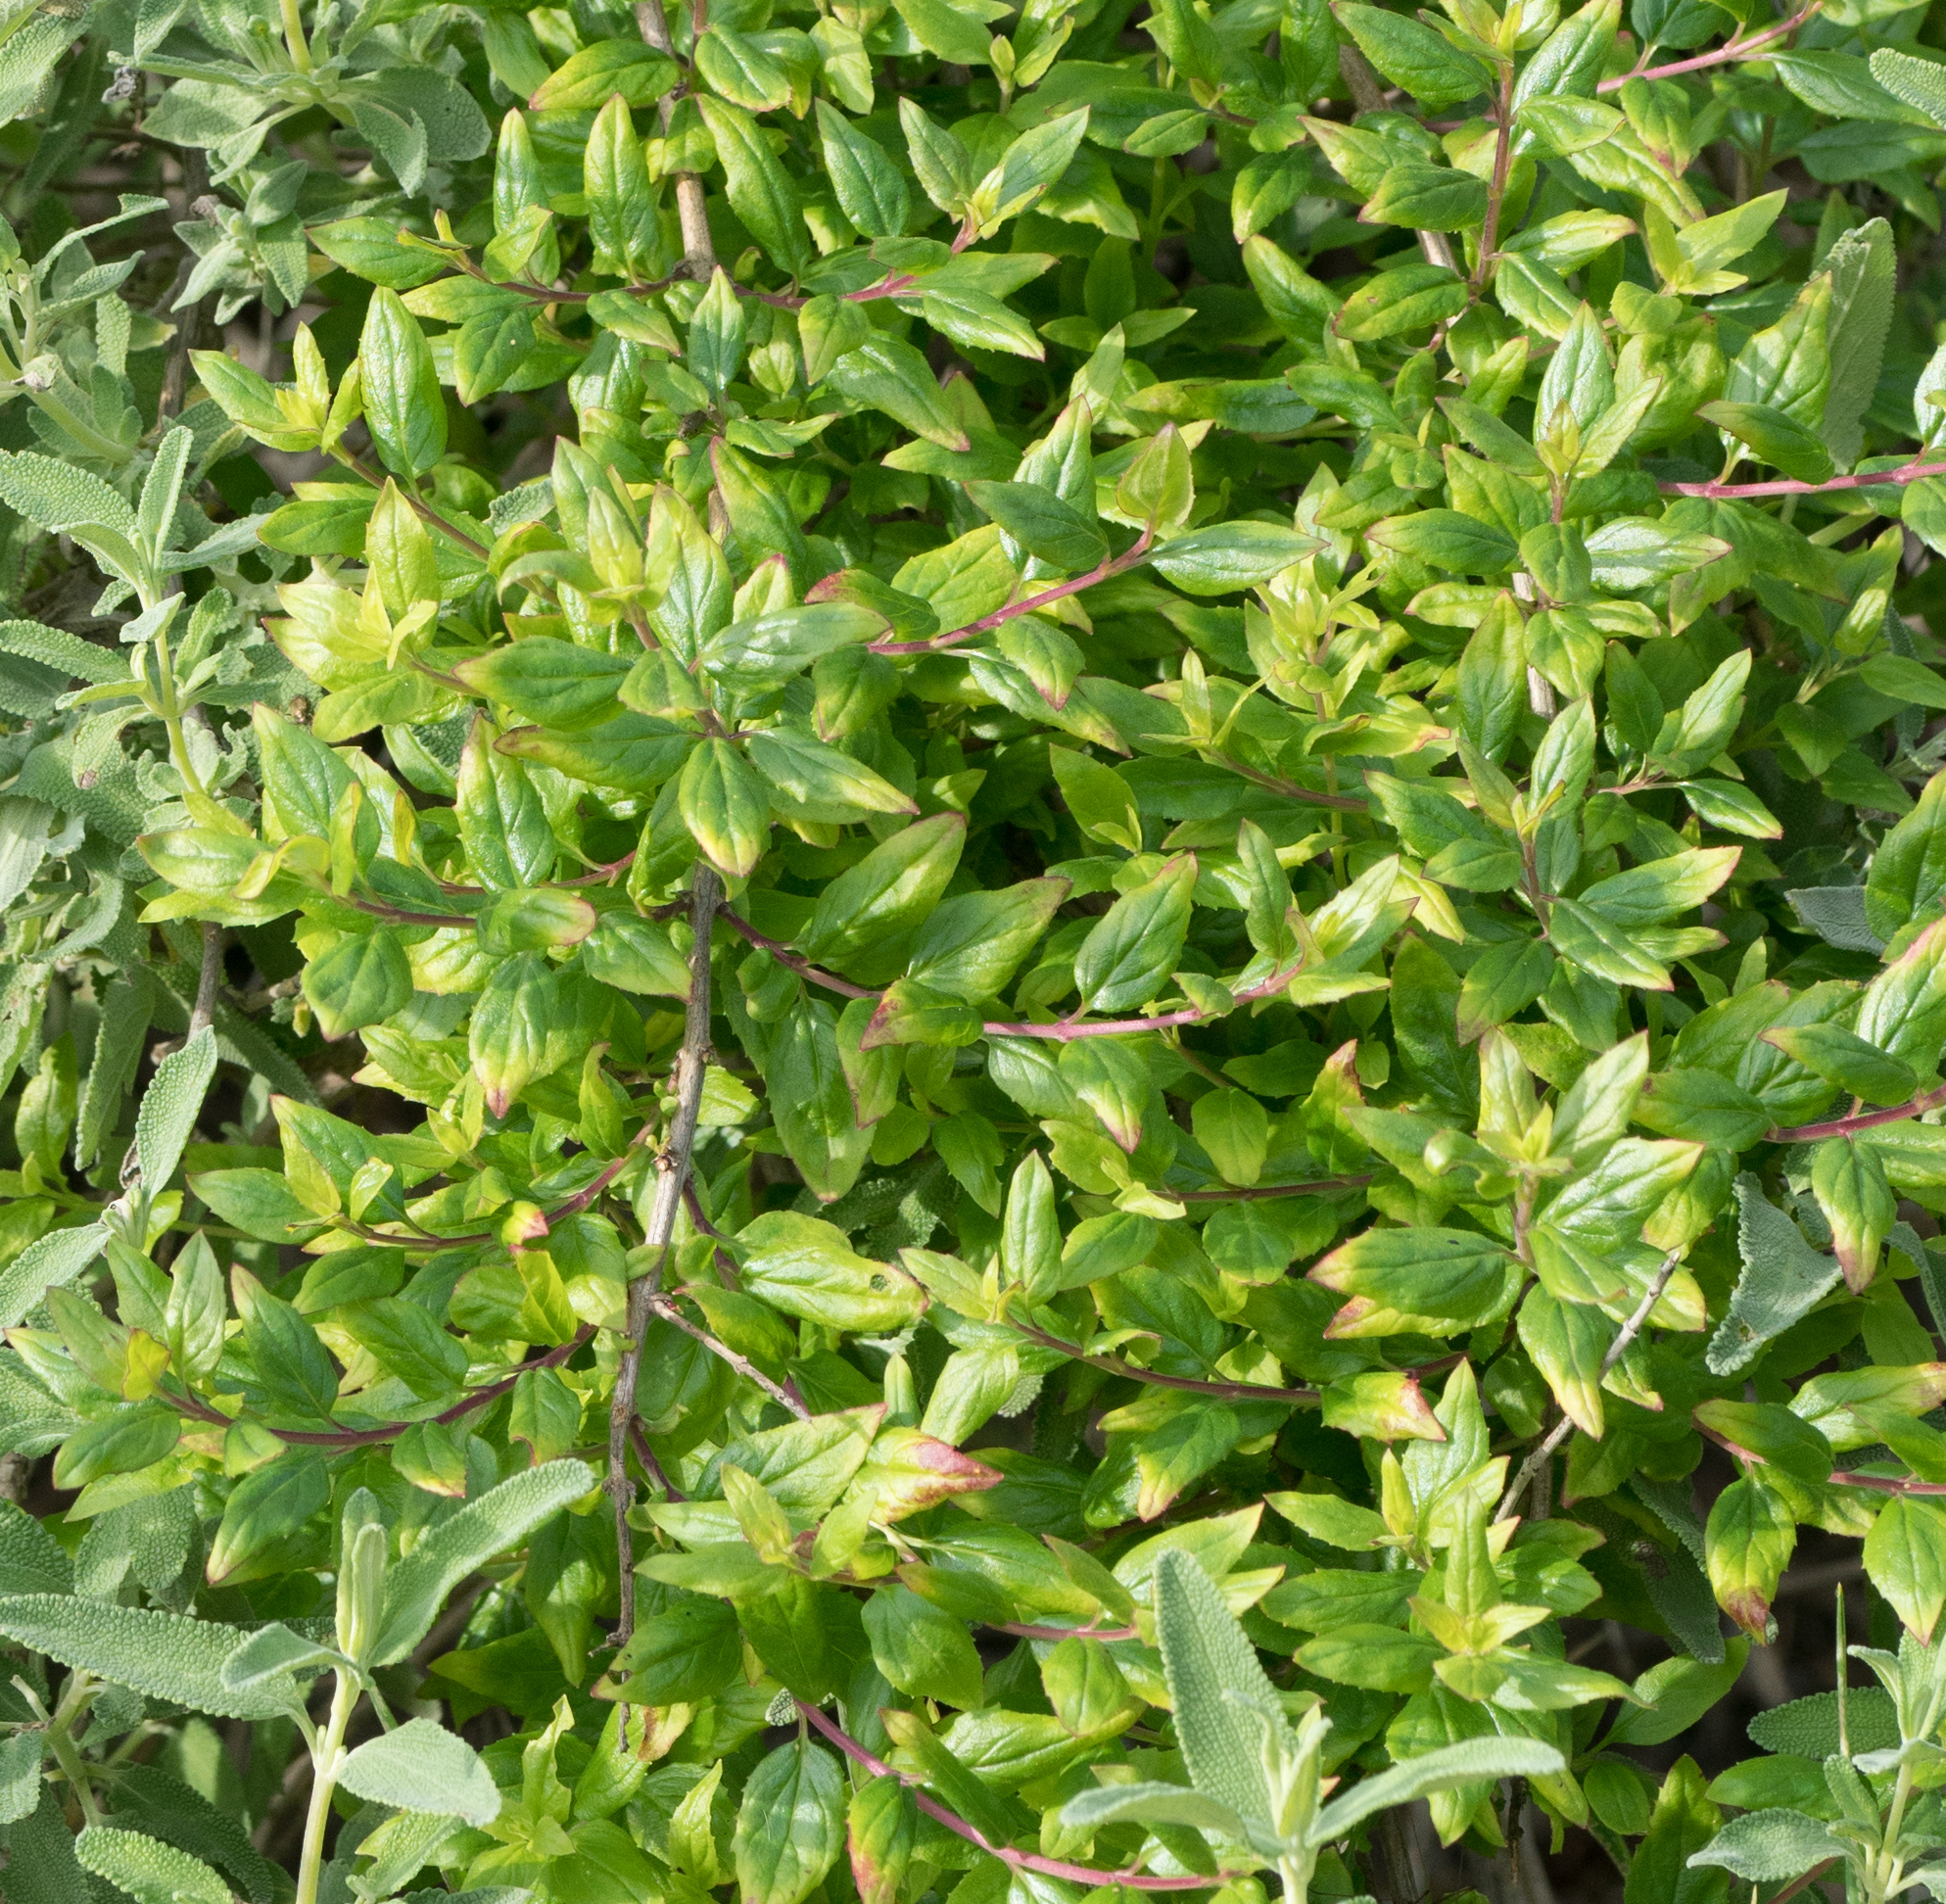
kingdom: Plantae
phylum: Tracheophyta
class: Magnoliopsida
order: Lamiales
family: Plantaginaceae
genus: Keckiella
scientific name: Keckiella cordifolia
